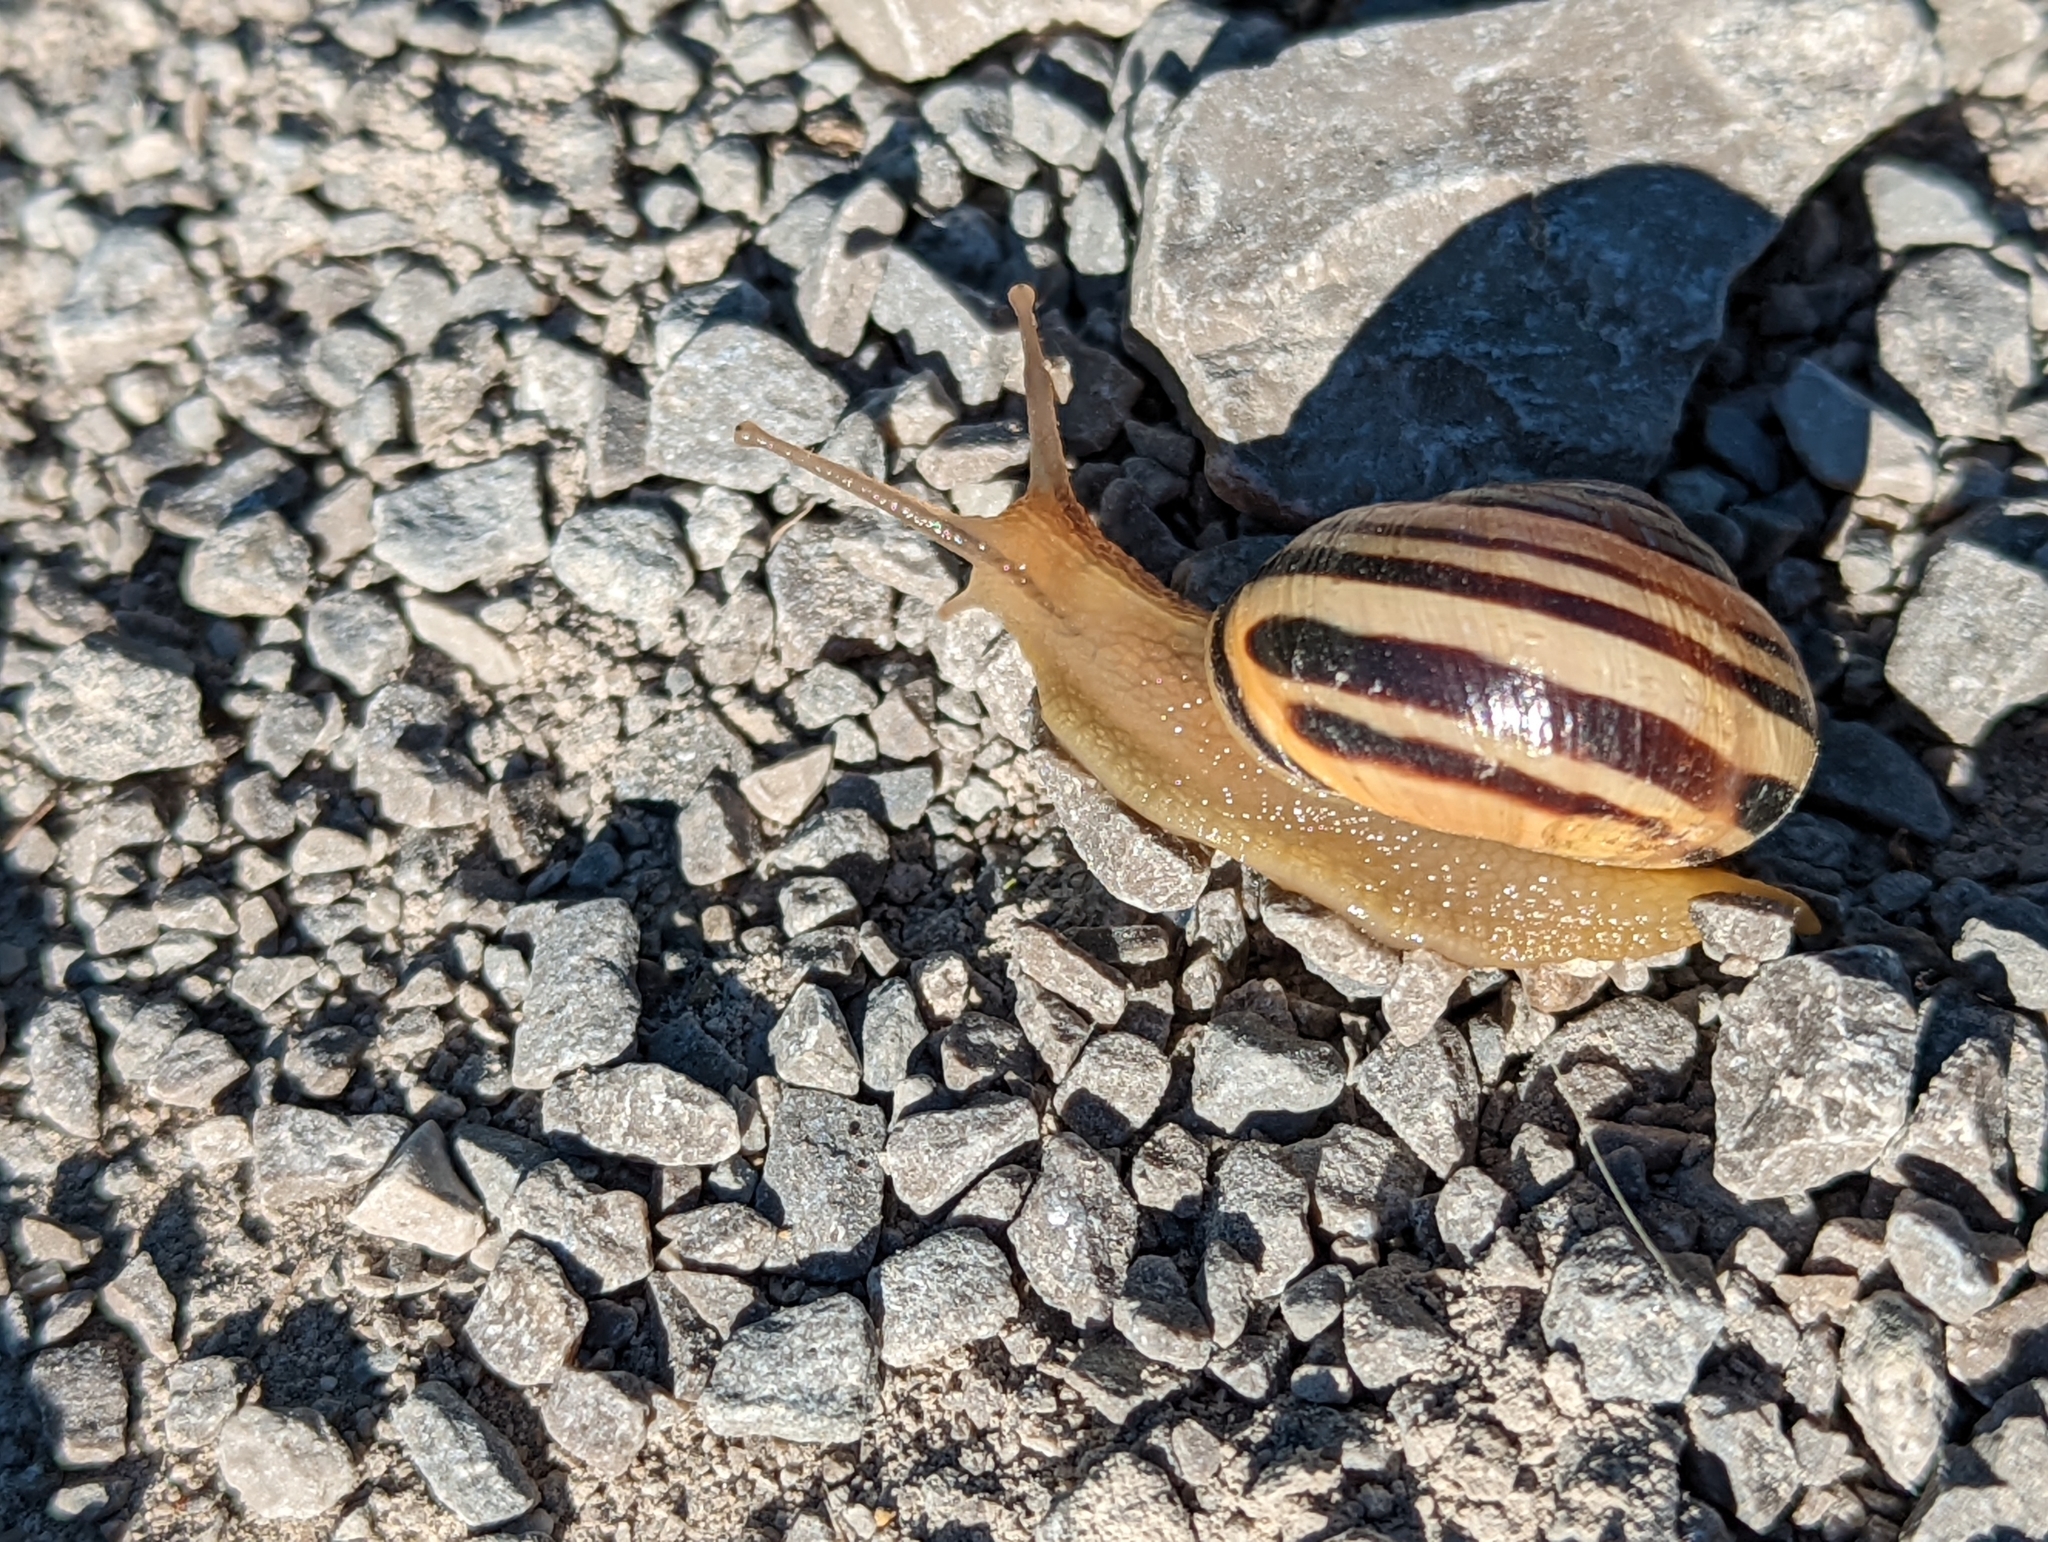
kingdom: Animalia
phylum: Mollusca
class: Gastropoda
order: Stylommatophora
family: Helicidae
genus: Cepaea
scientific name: Cepaea nemoralis
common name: Grovesnail
